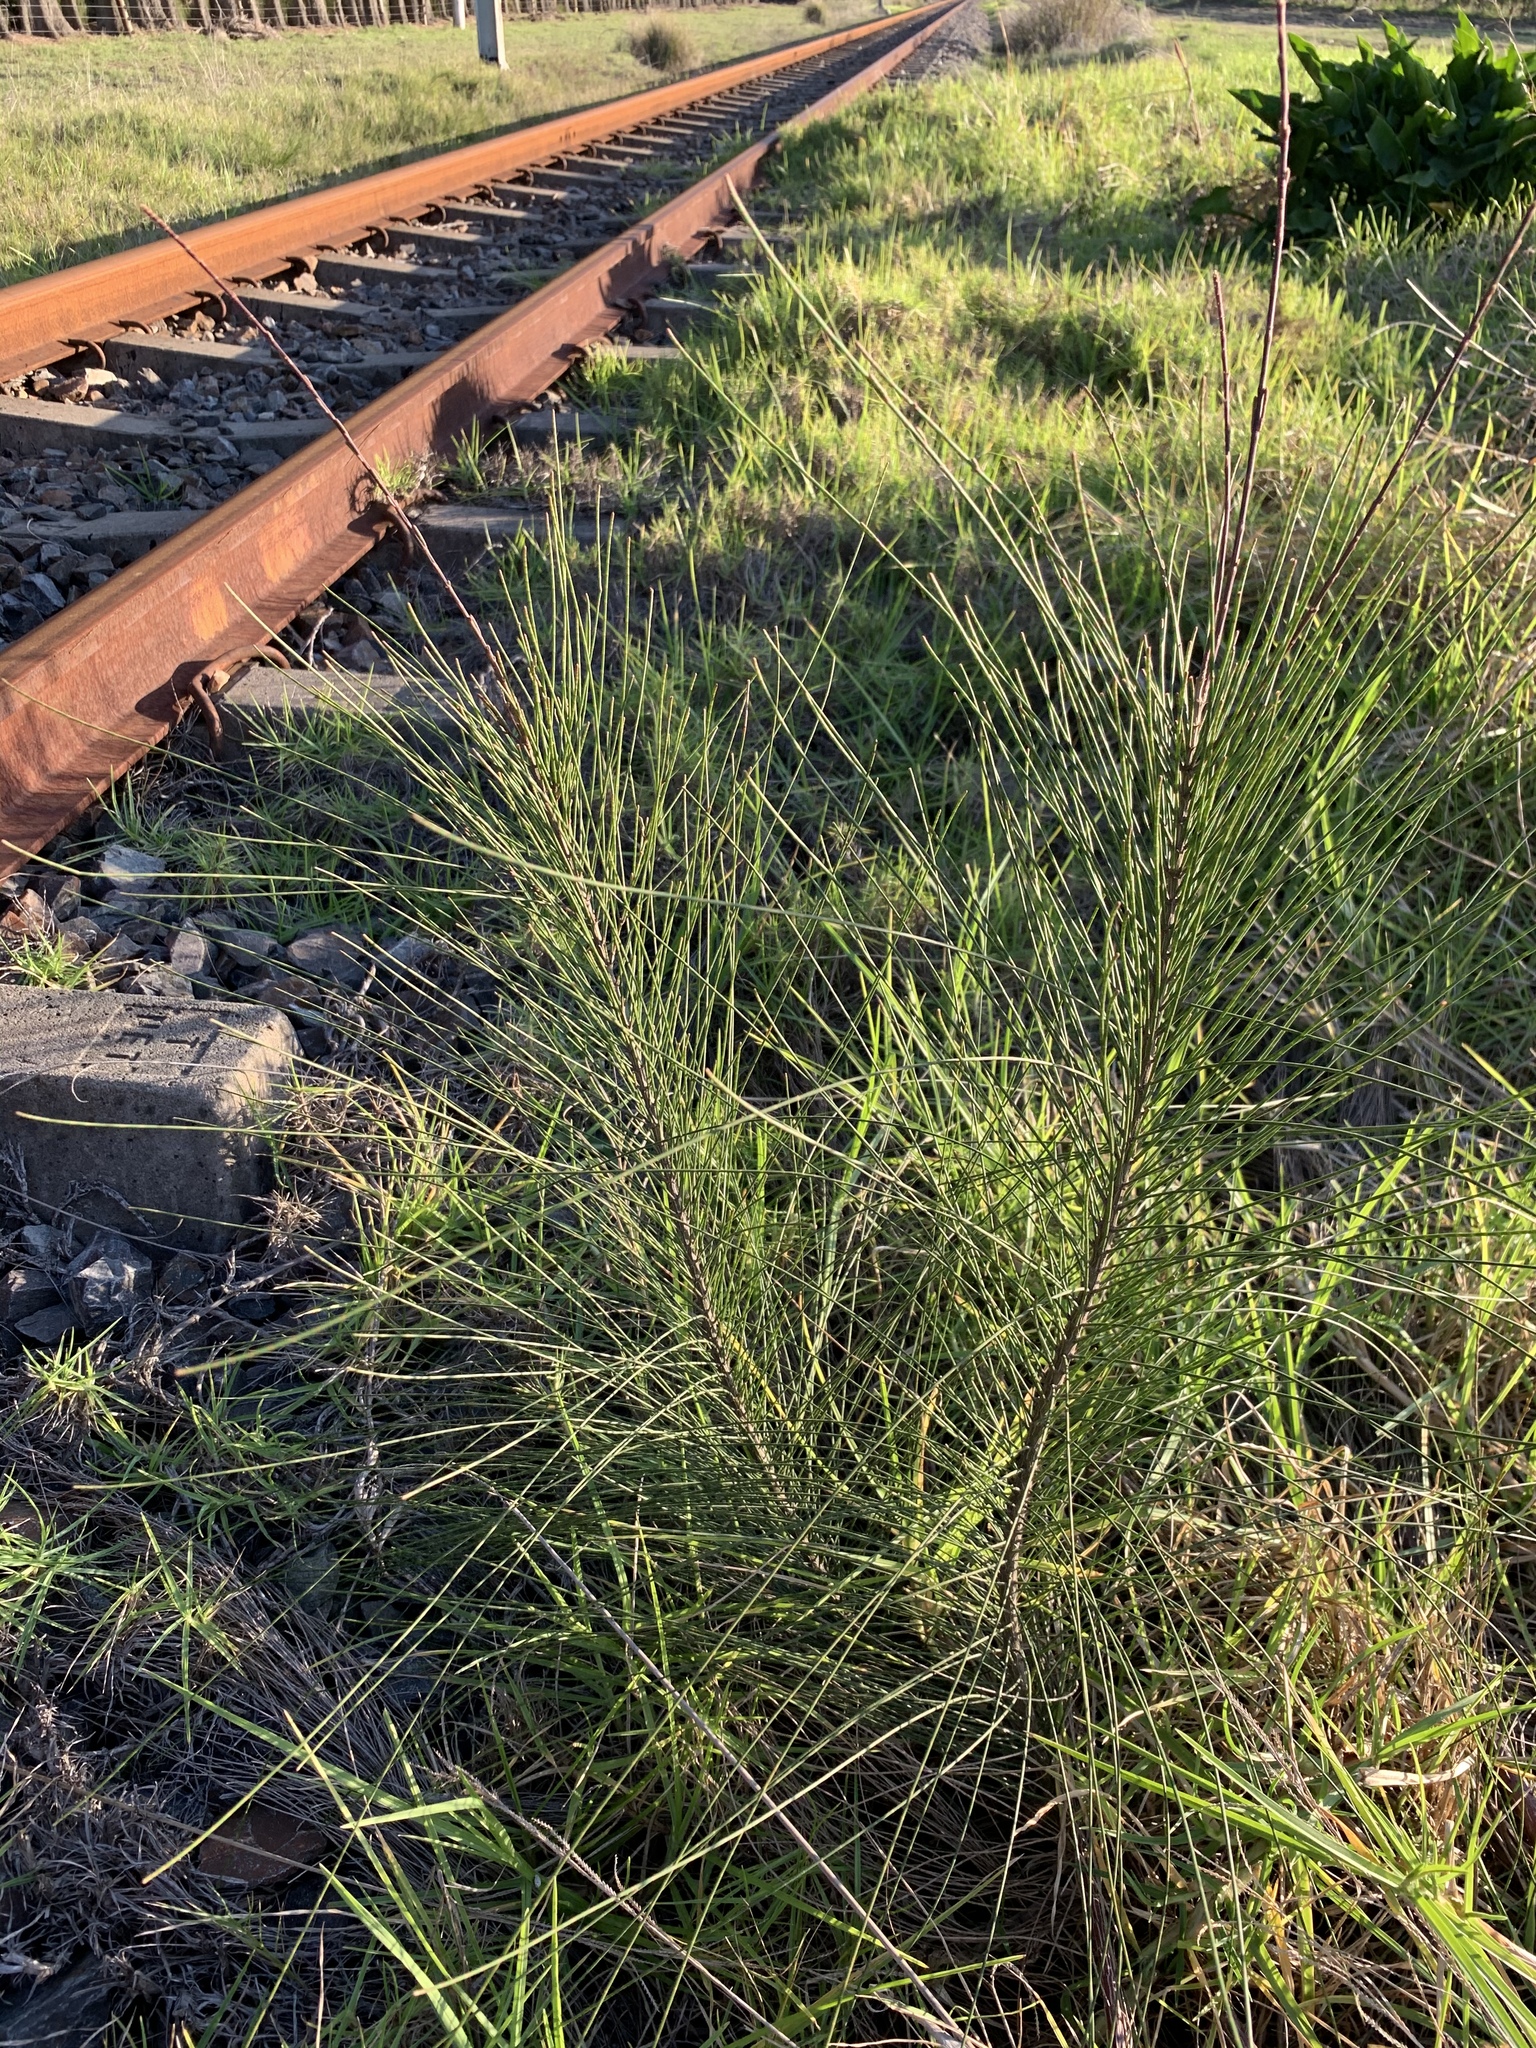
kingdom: Plantae
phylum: Tracheophyta
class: Magnoliopsida
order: Fagales
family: Casuarinaceae
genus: Casuarina
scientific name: Casuarina cunninghamiana
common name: River sheoak
